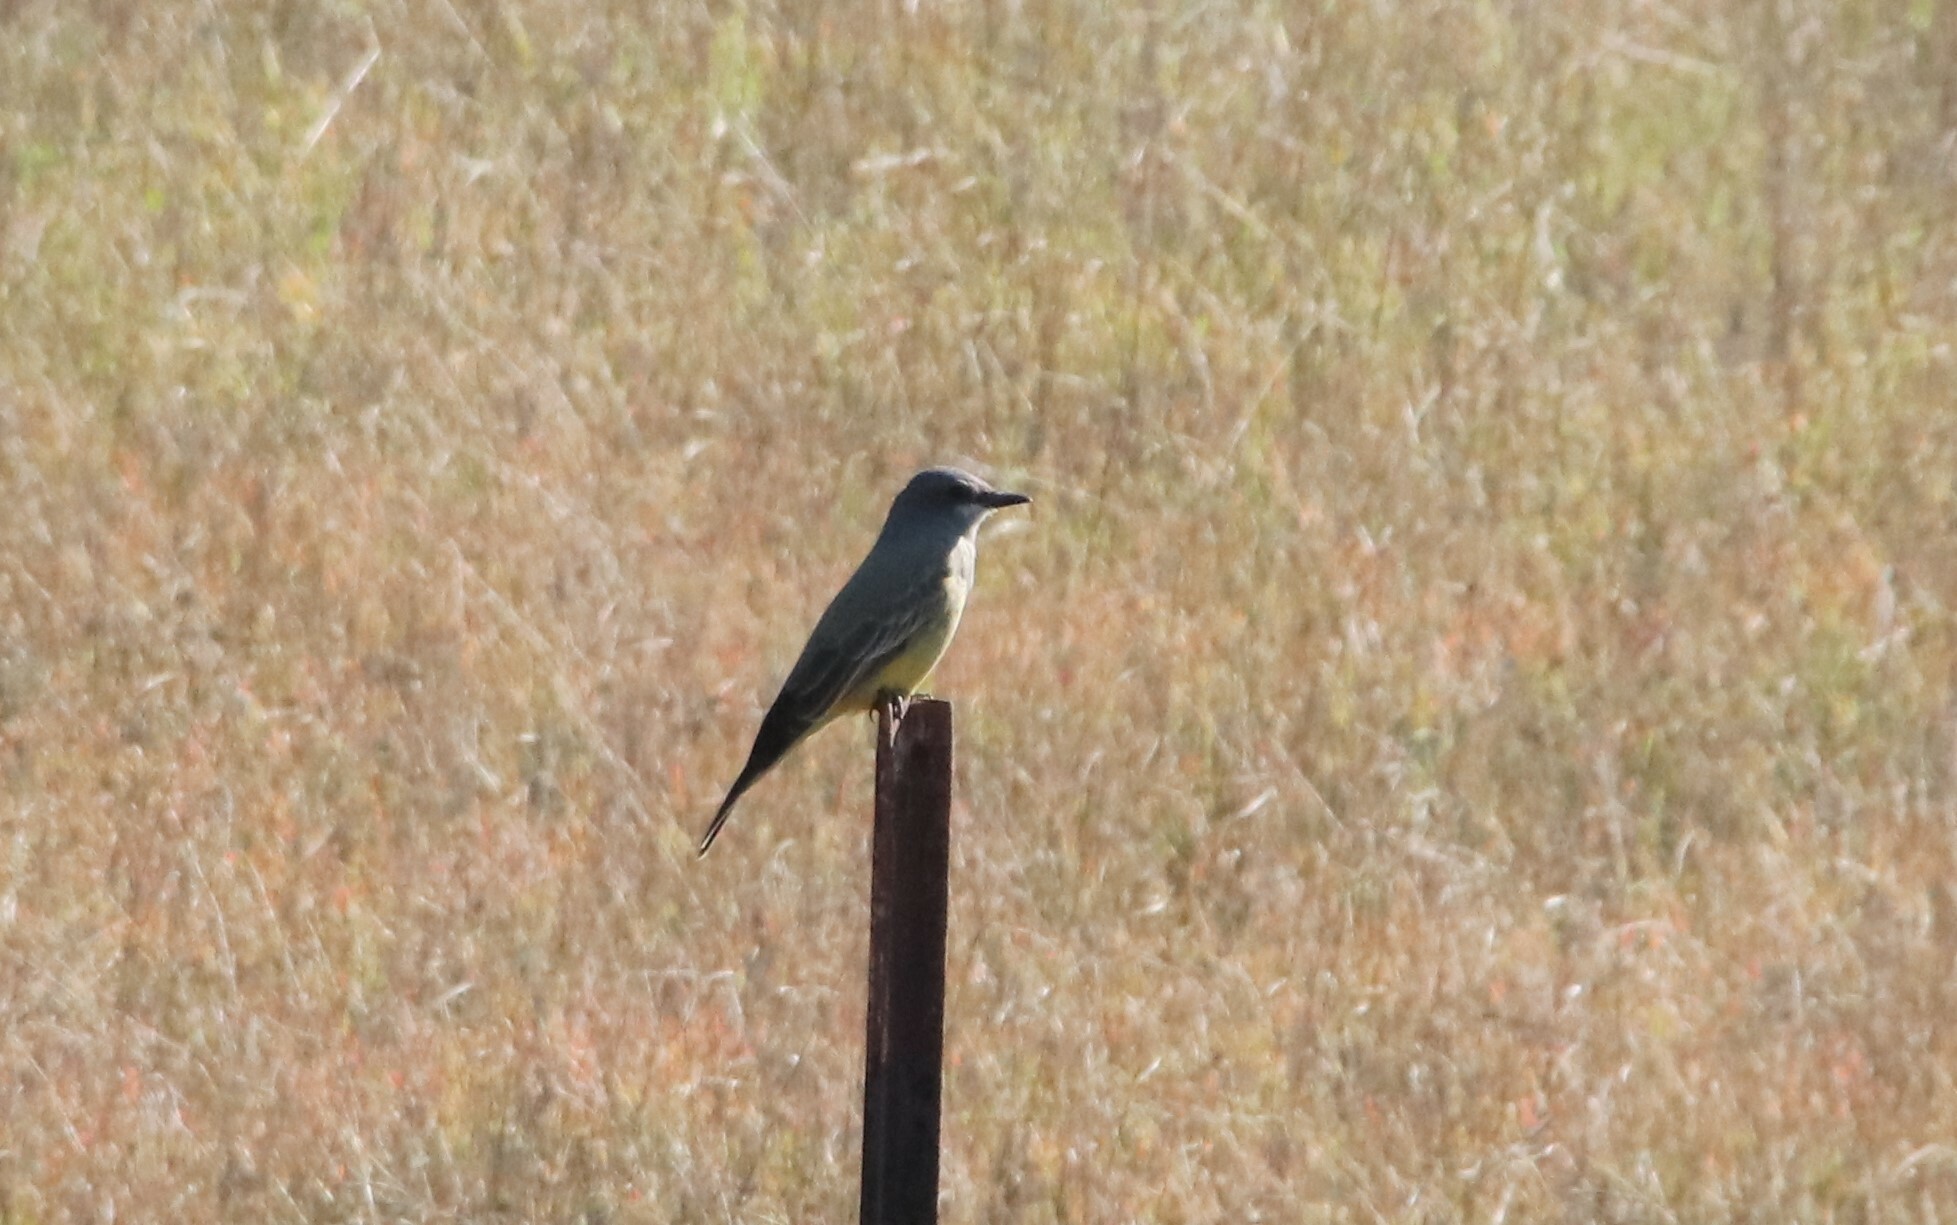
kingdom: Animalia
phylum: Chordata
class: Aves
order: Passeriformes
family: Tyrannidae
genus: Tyrannus
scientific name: Tyrannus vociferans
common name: Cassin's kingbird
